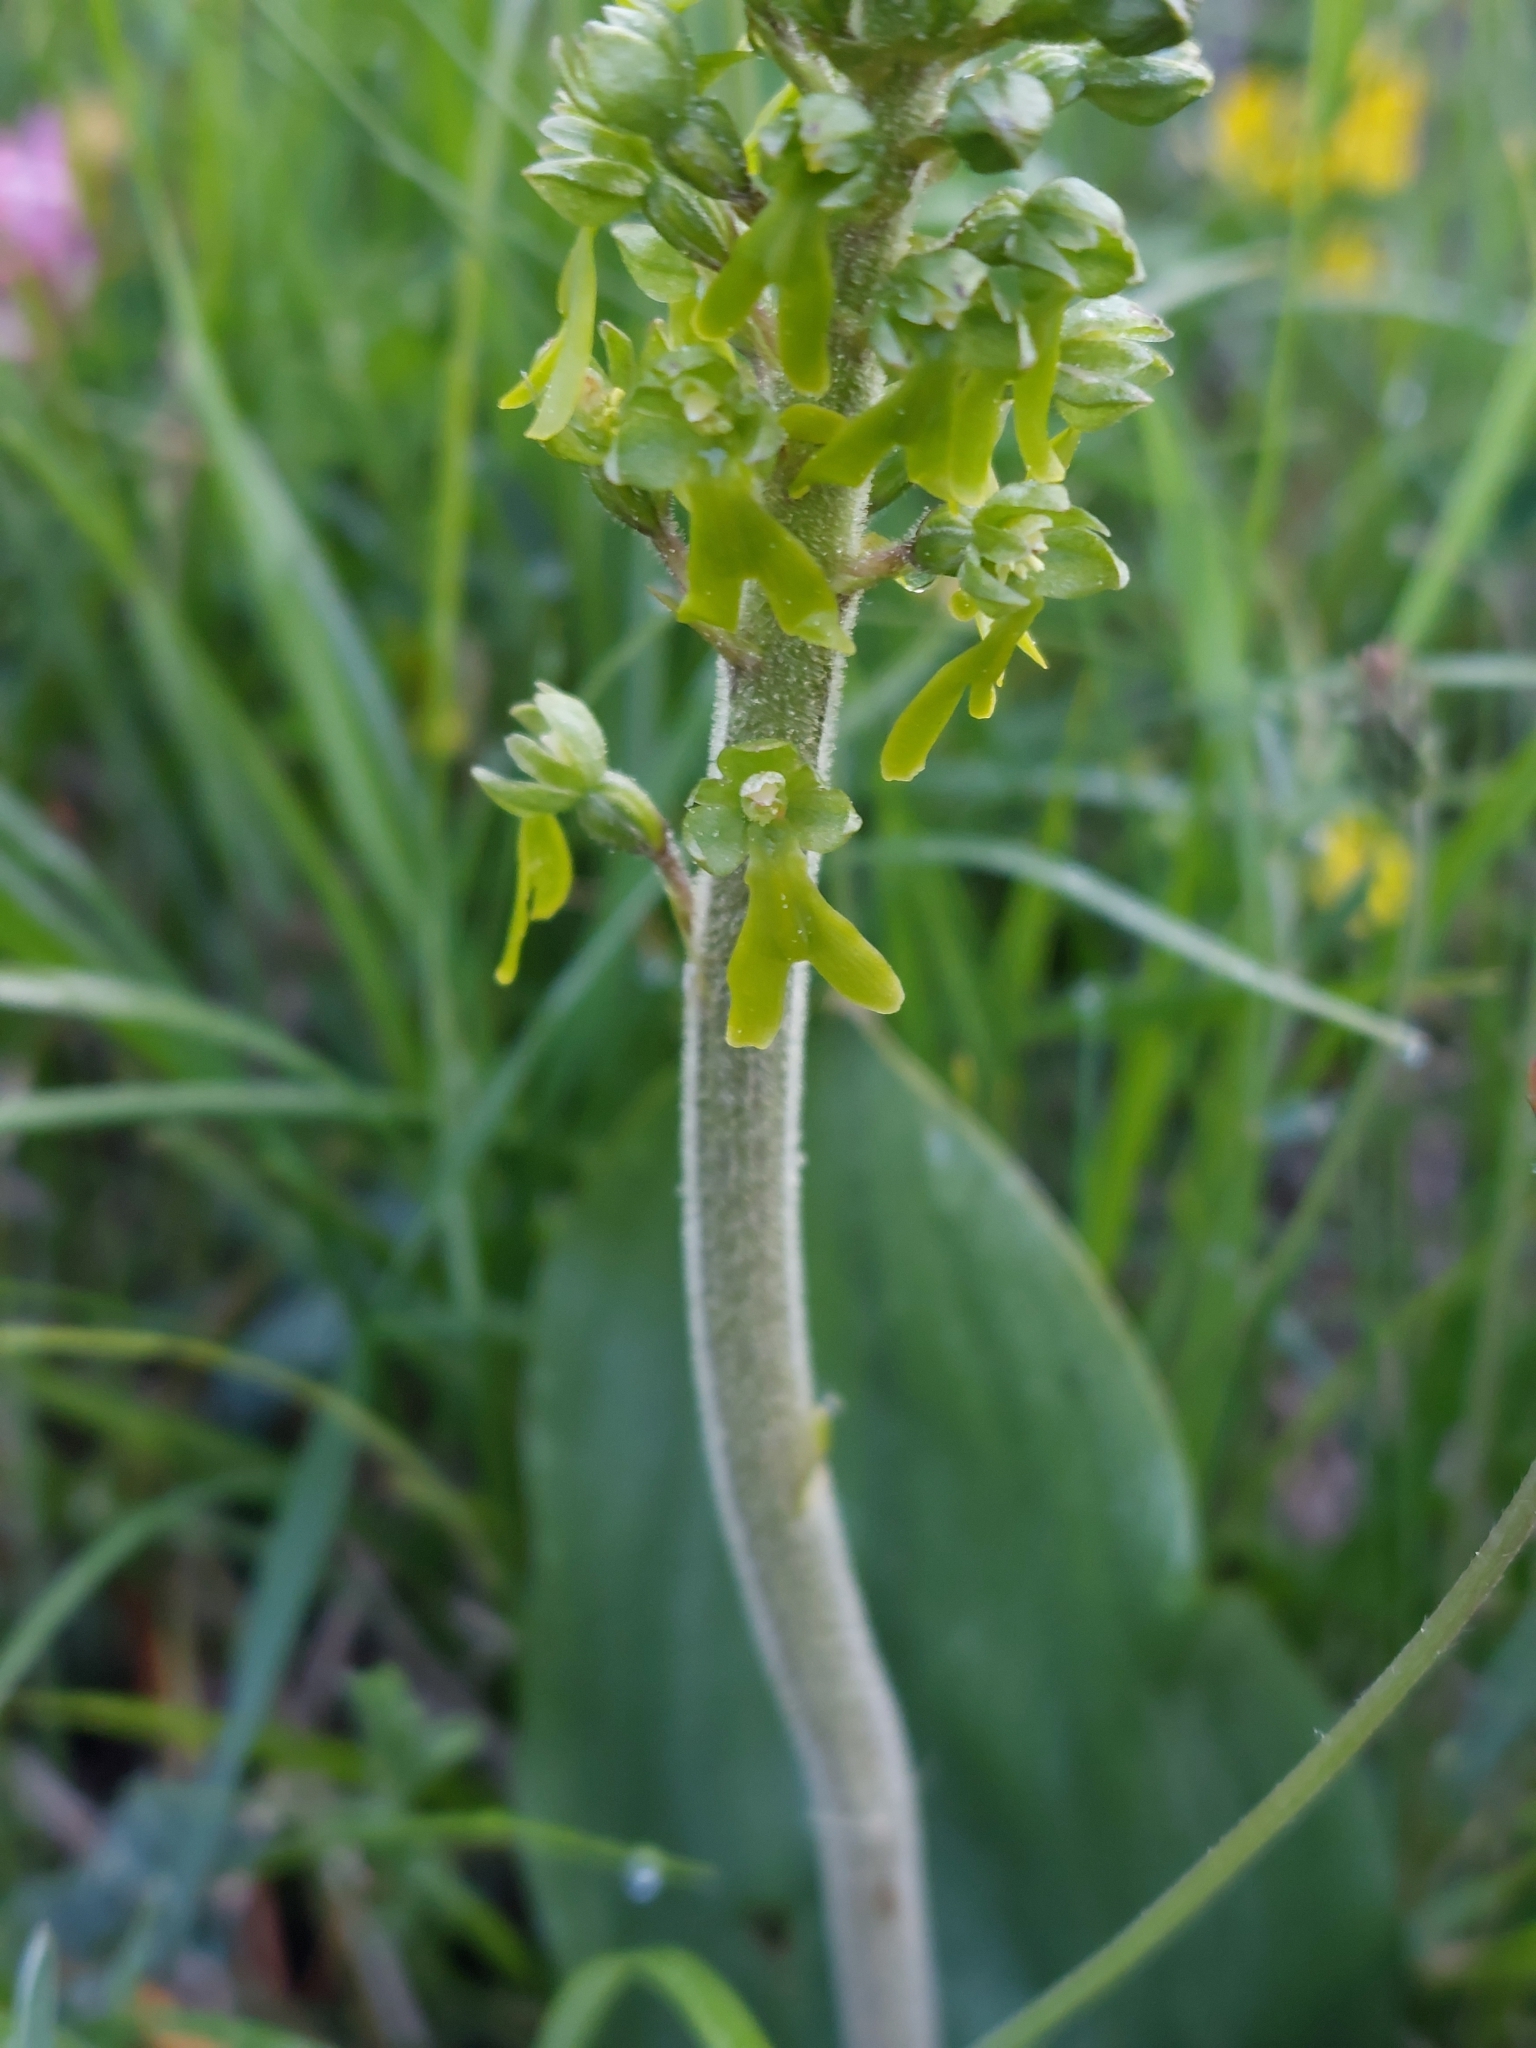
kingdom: Plantae
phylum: Tracheophyta
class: Liliopsida
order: Asparagales
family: Orchidaceae
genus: Neottia
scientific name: Neottia ovata
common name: Common twayblade
